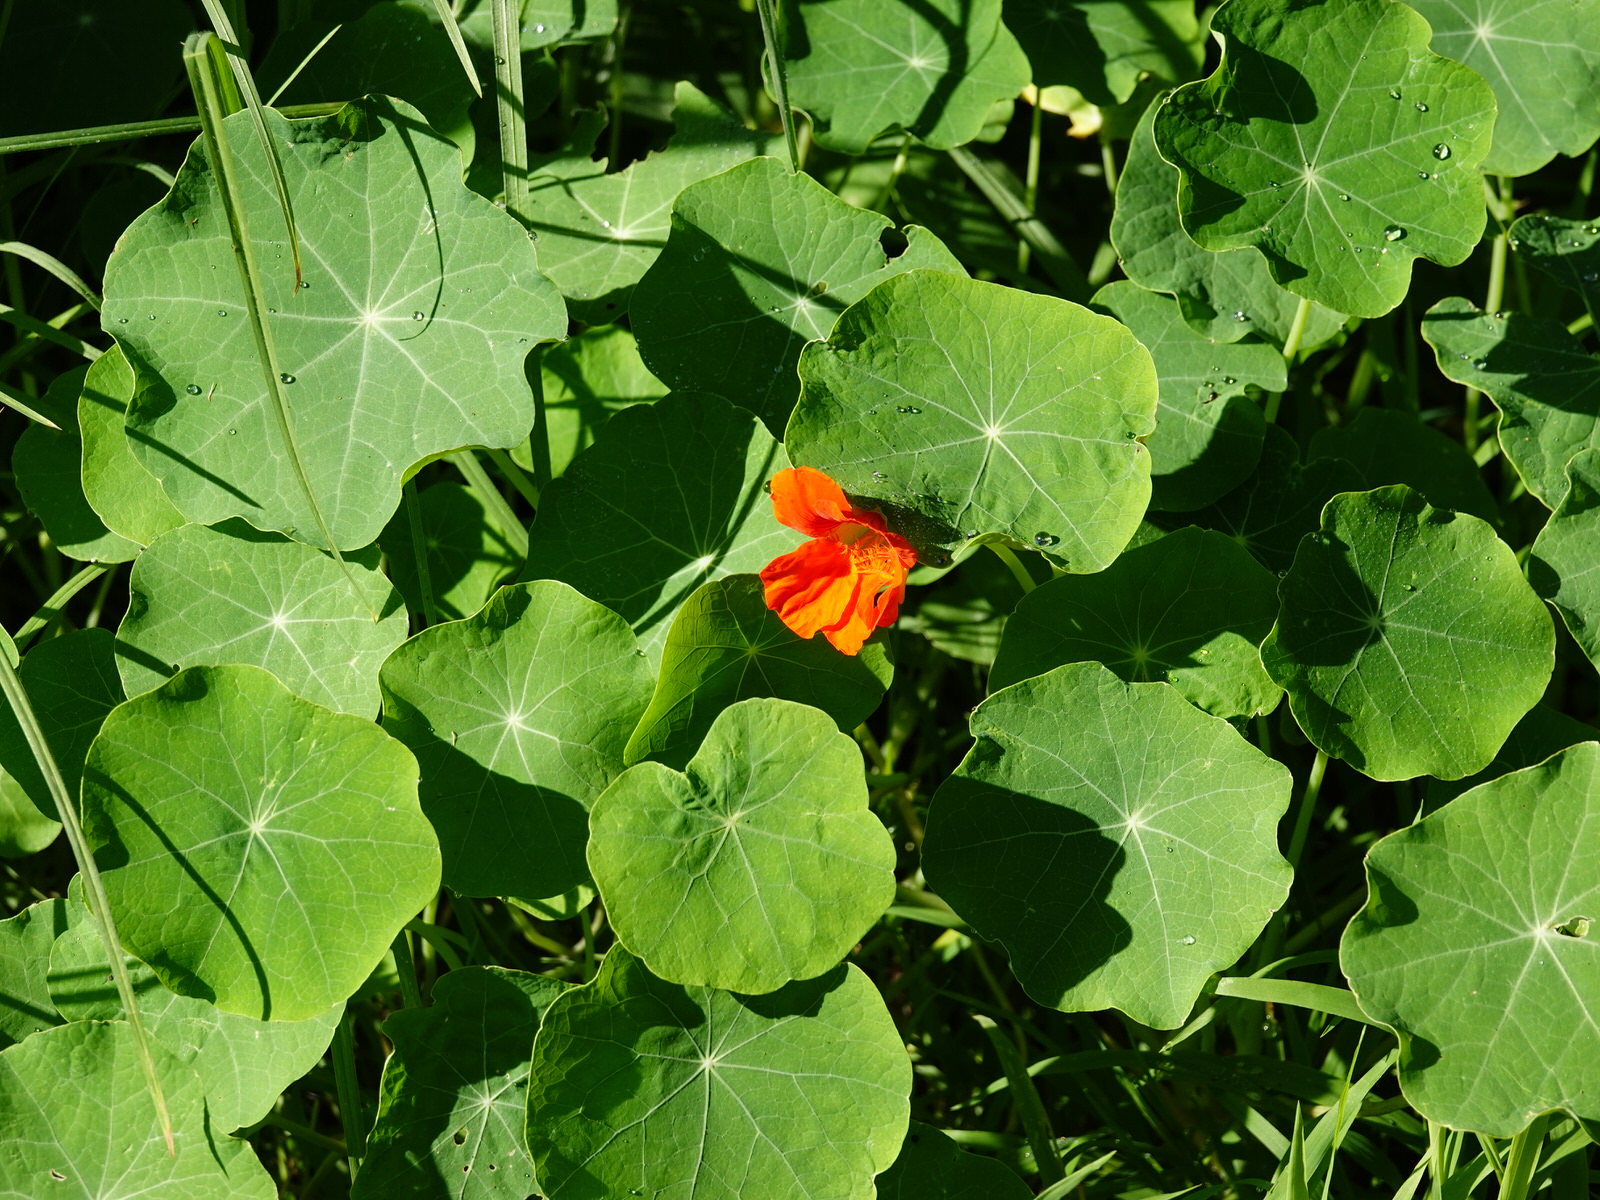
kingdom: Plantae
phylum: Tracheophyta
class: Magnoliopsida
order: Brassicales
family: Tropaeolaceae
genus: Tropaeolum
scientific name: Tropaeolum majus
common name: Nasturtium
